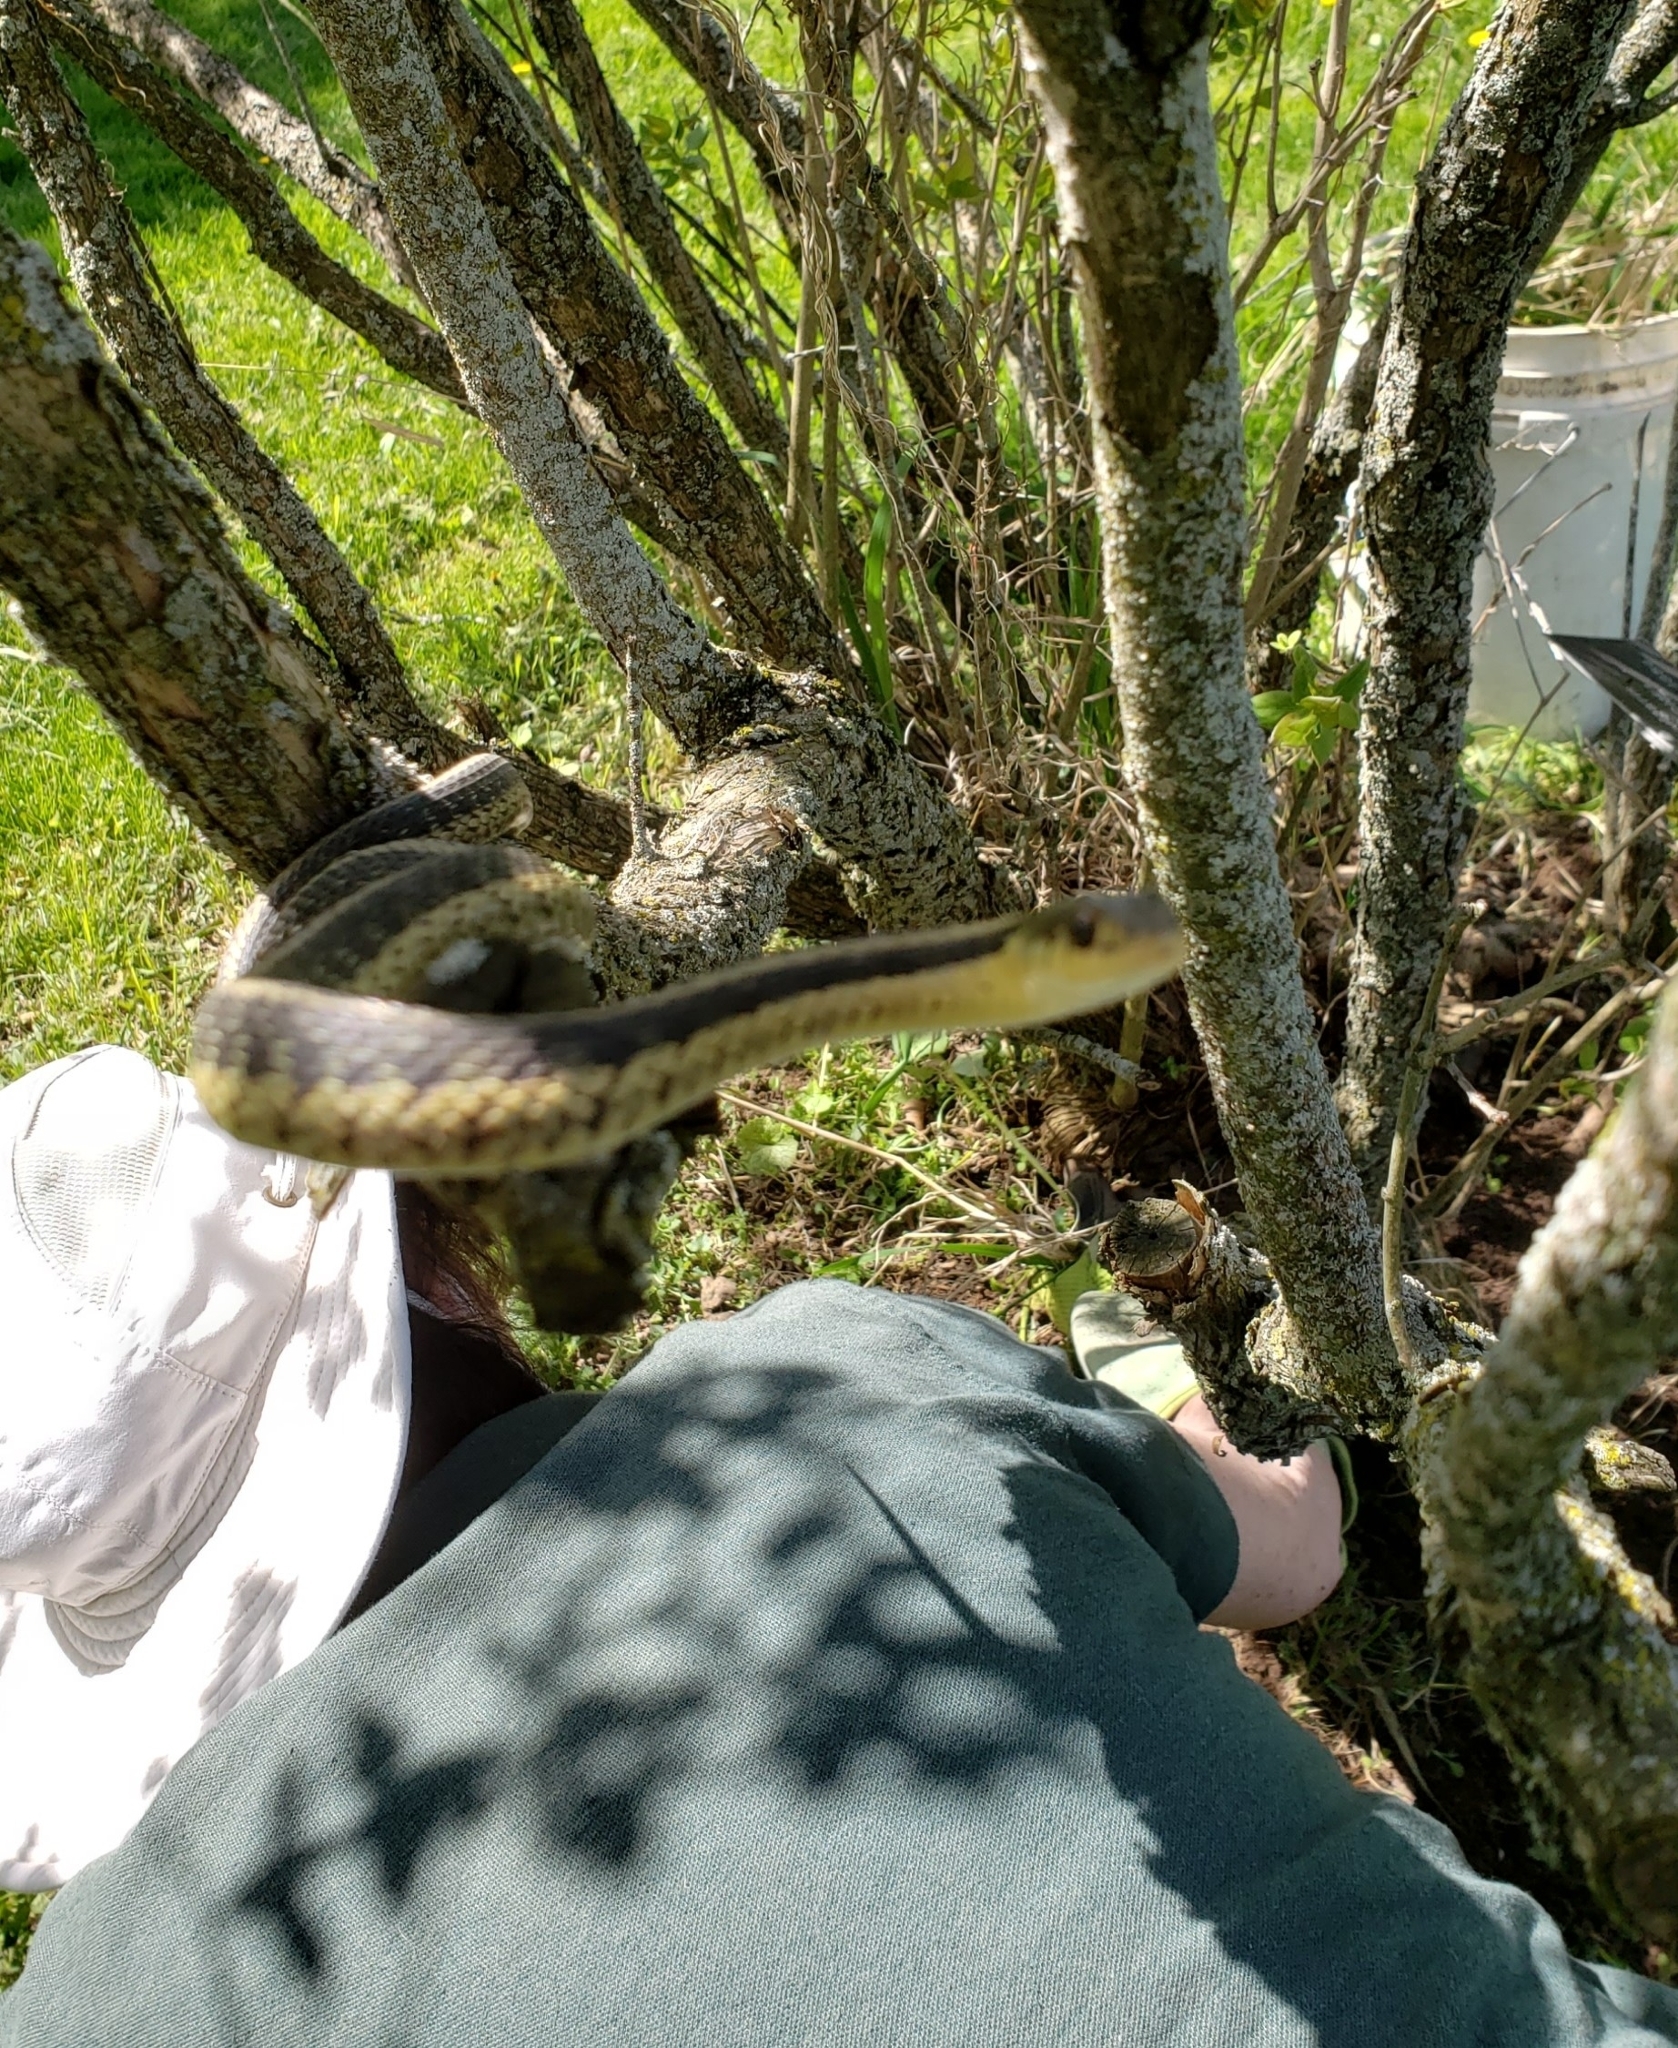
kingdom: Animalia
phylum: Chordata
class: Squamata
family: Colubridae
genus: Thamnophis
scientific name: Thamnophis sirtalis
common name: Common garter snake
